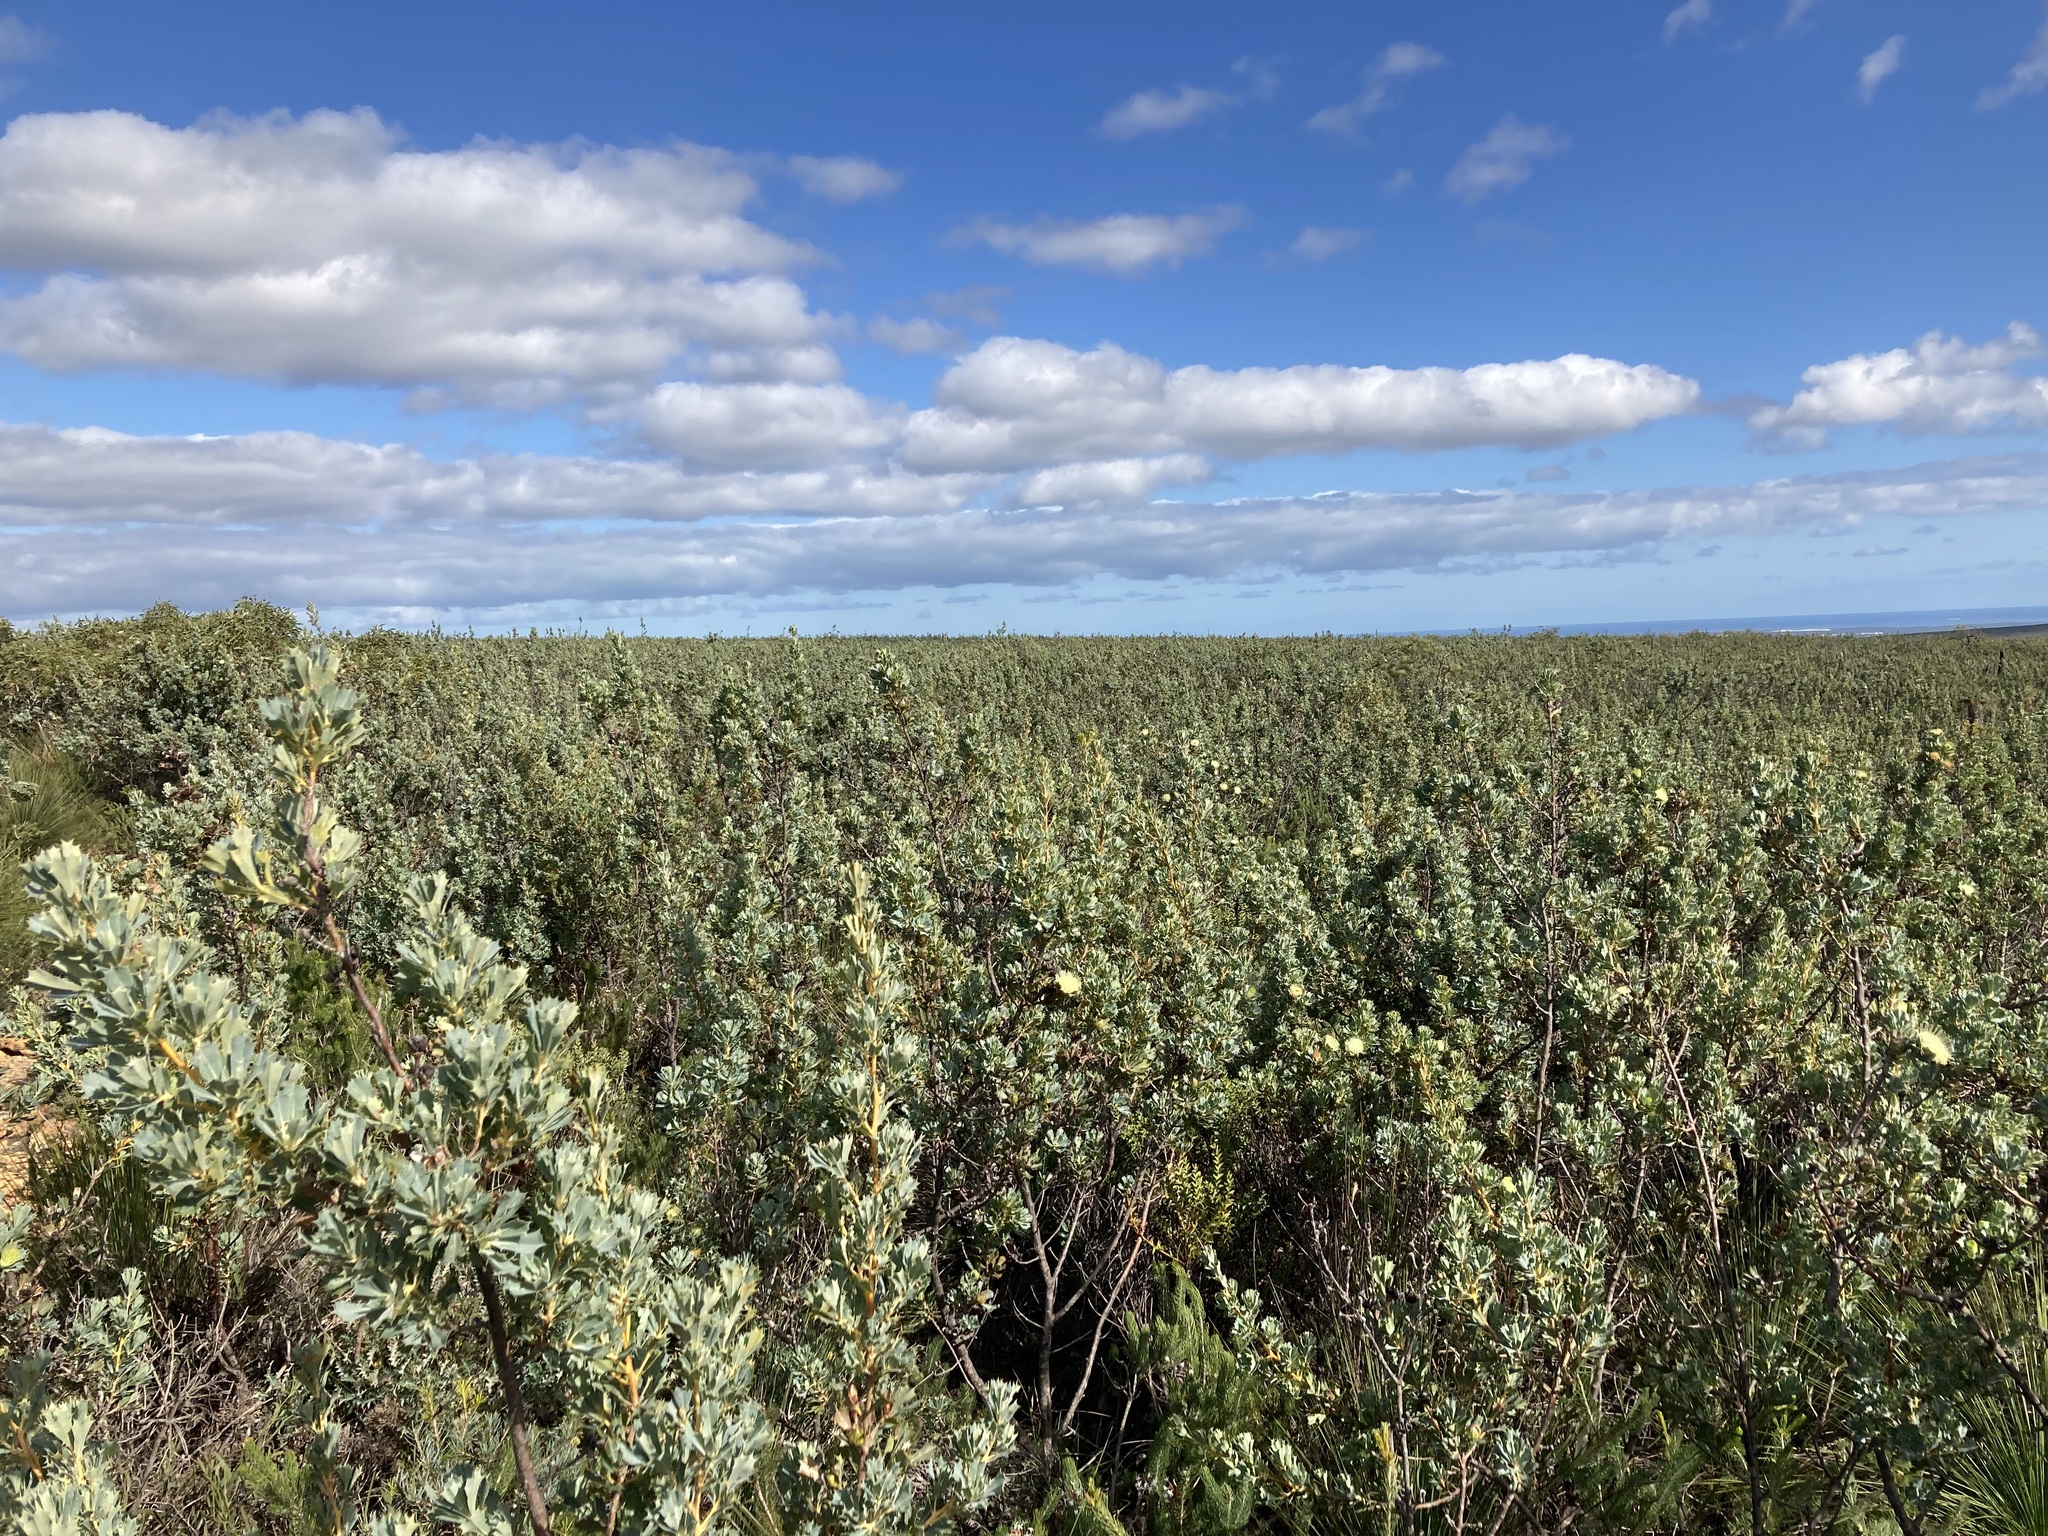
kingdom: Plantae
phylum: Tracheophyta
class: Magnoliopsida
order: Proteales
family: Proteaceae
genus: Banksia
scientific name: Banksia sessilis
